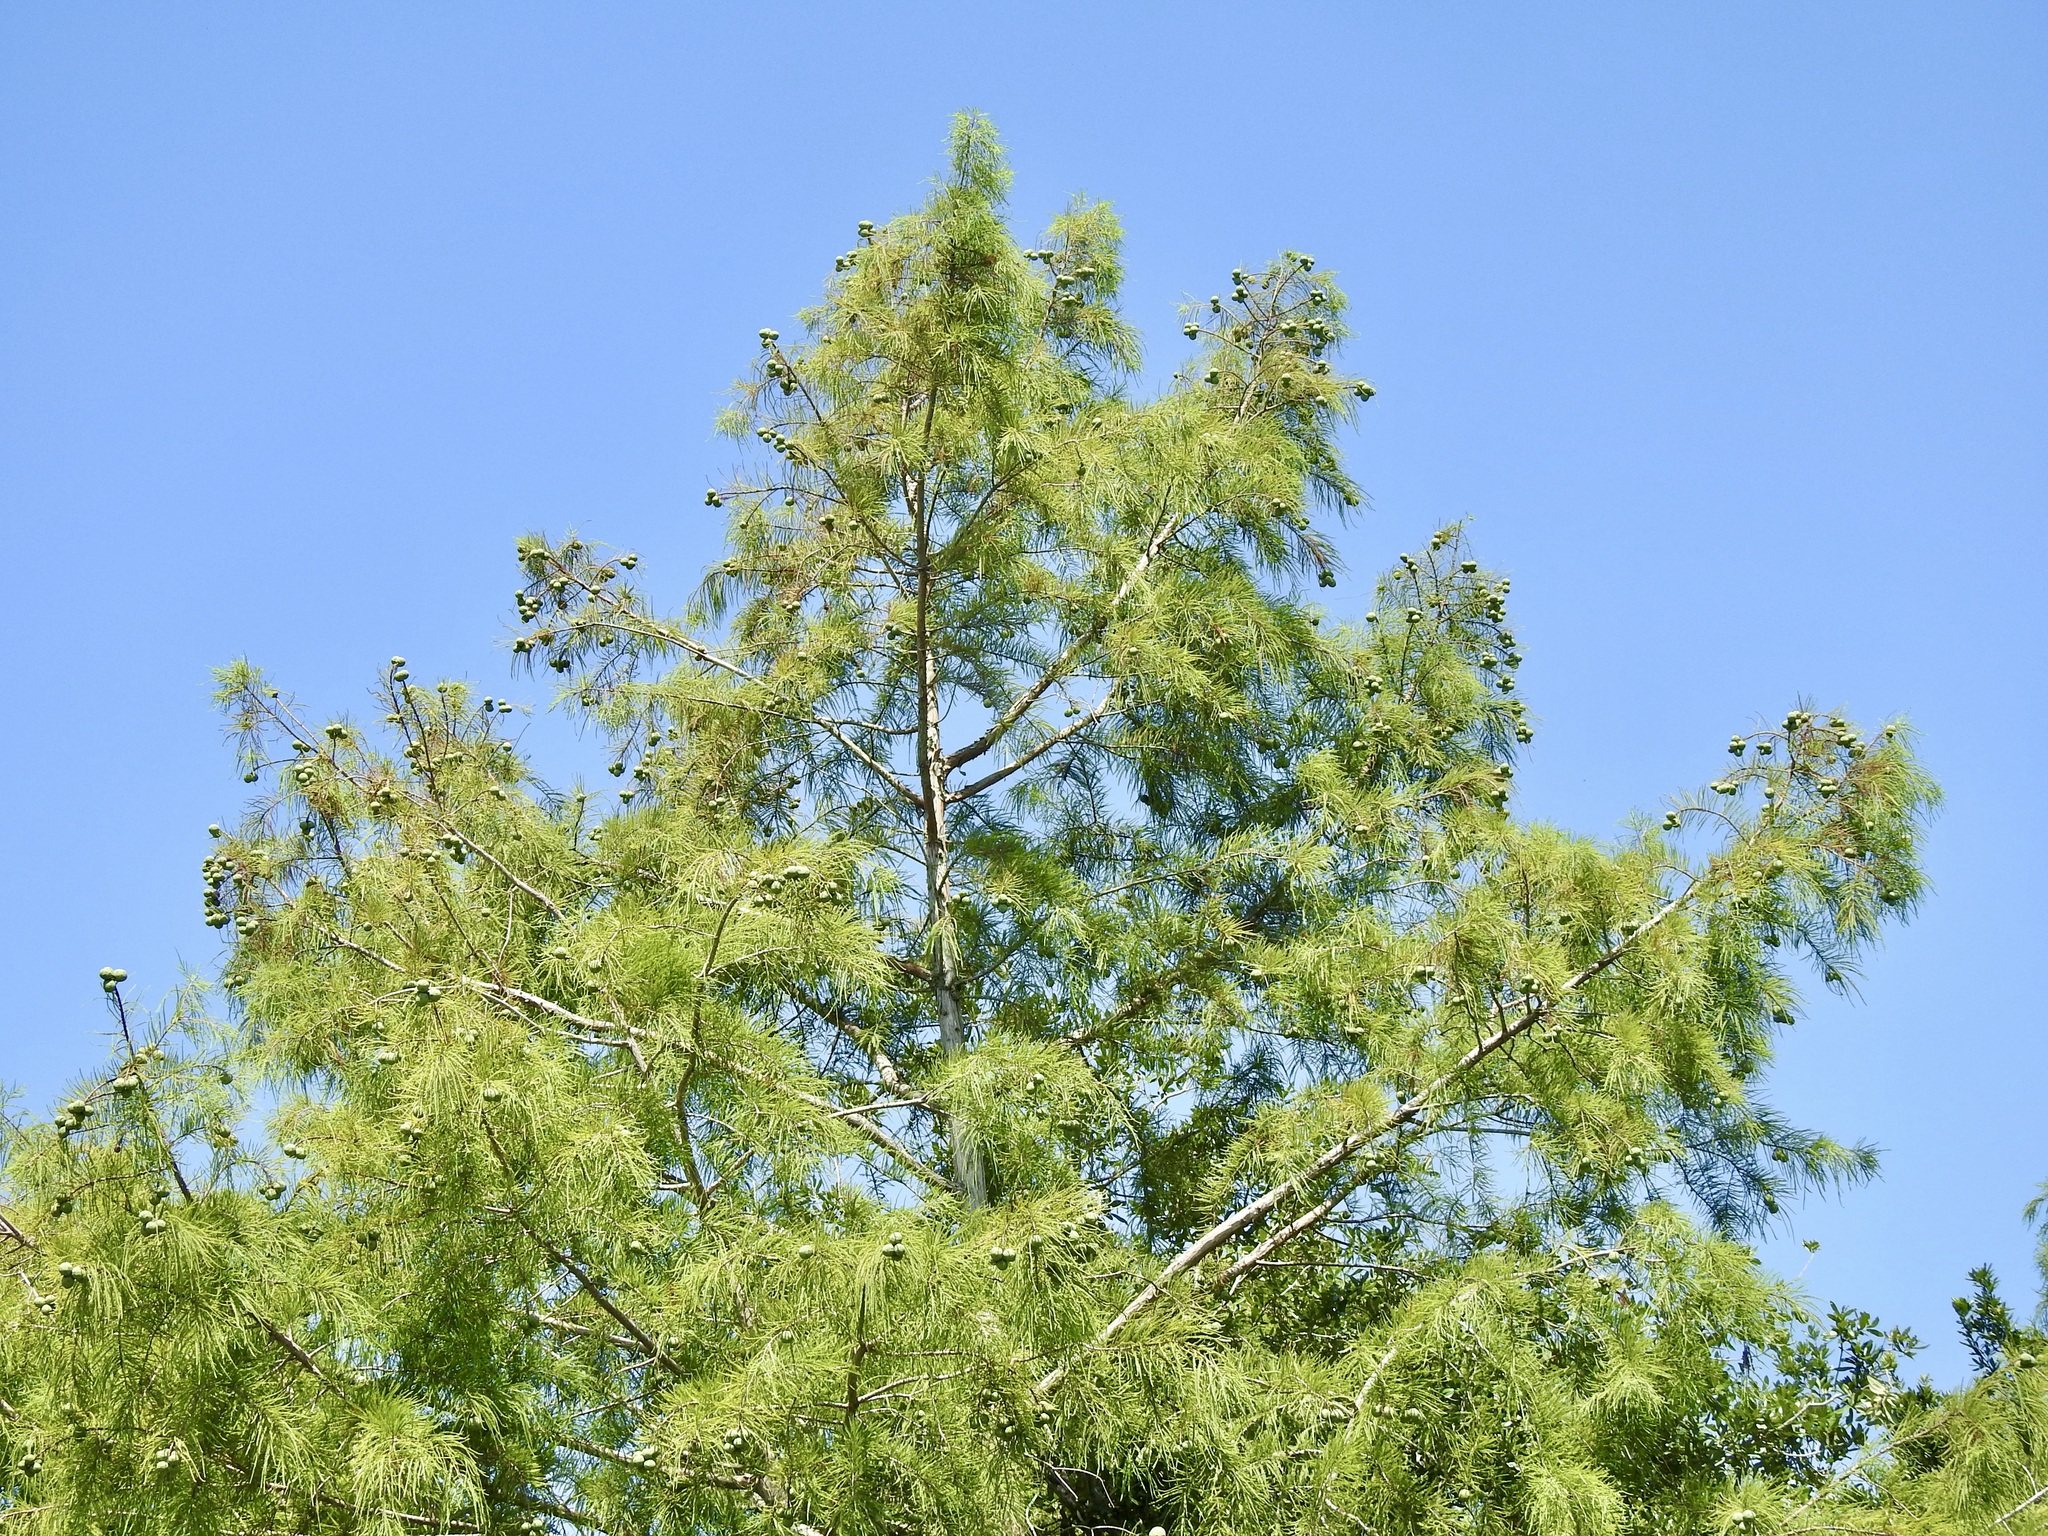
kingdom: Plantae
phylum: Tracheophyta
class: Pinopsida
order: Pinales
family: Cupressaceae
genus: Taxodium
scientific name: Taxodium distichum
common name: Bald cypress
